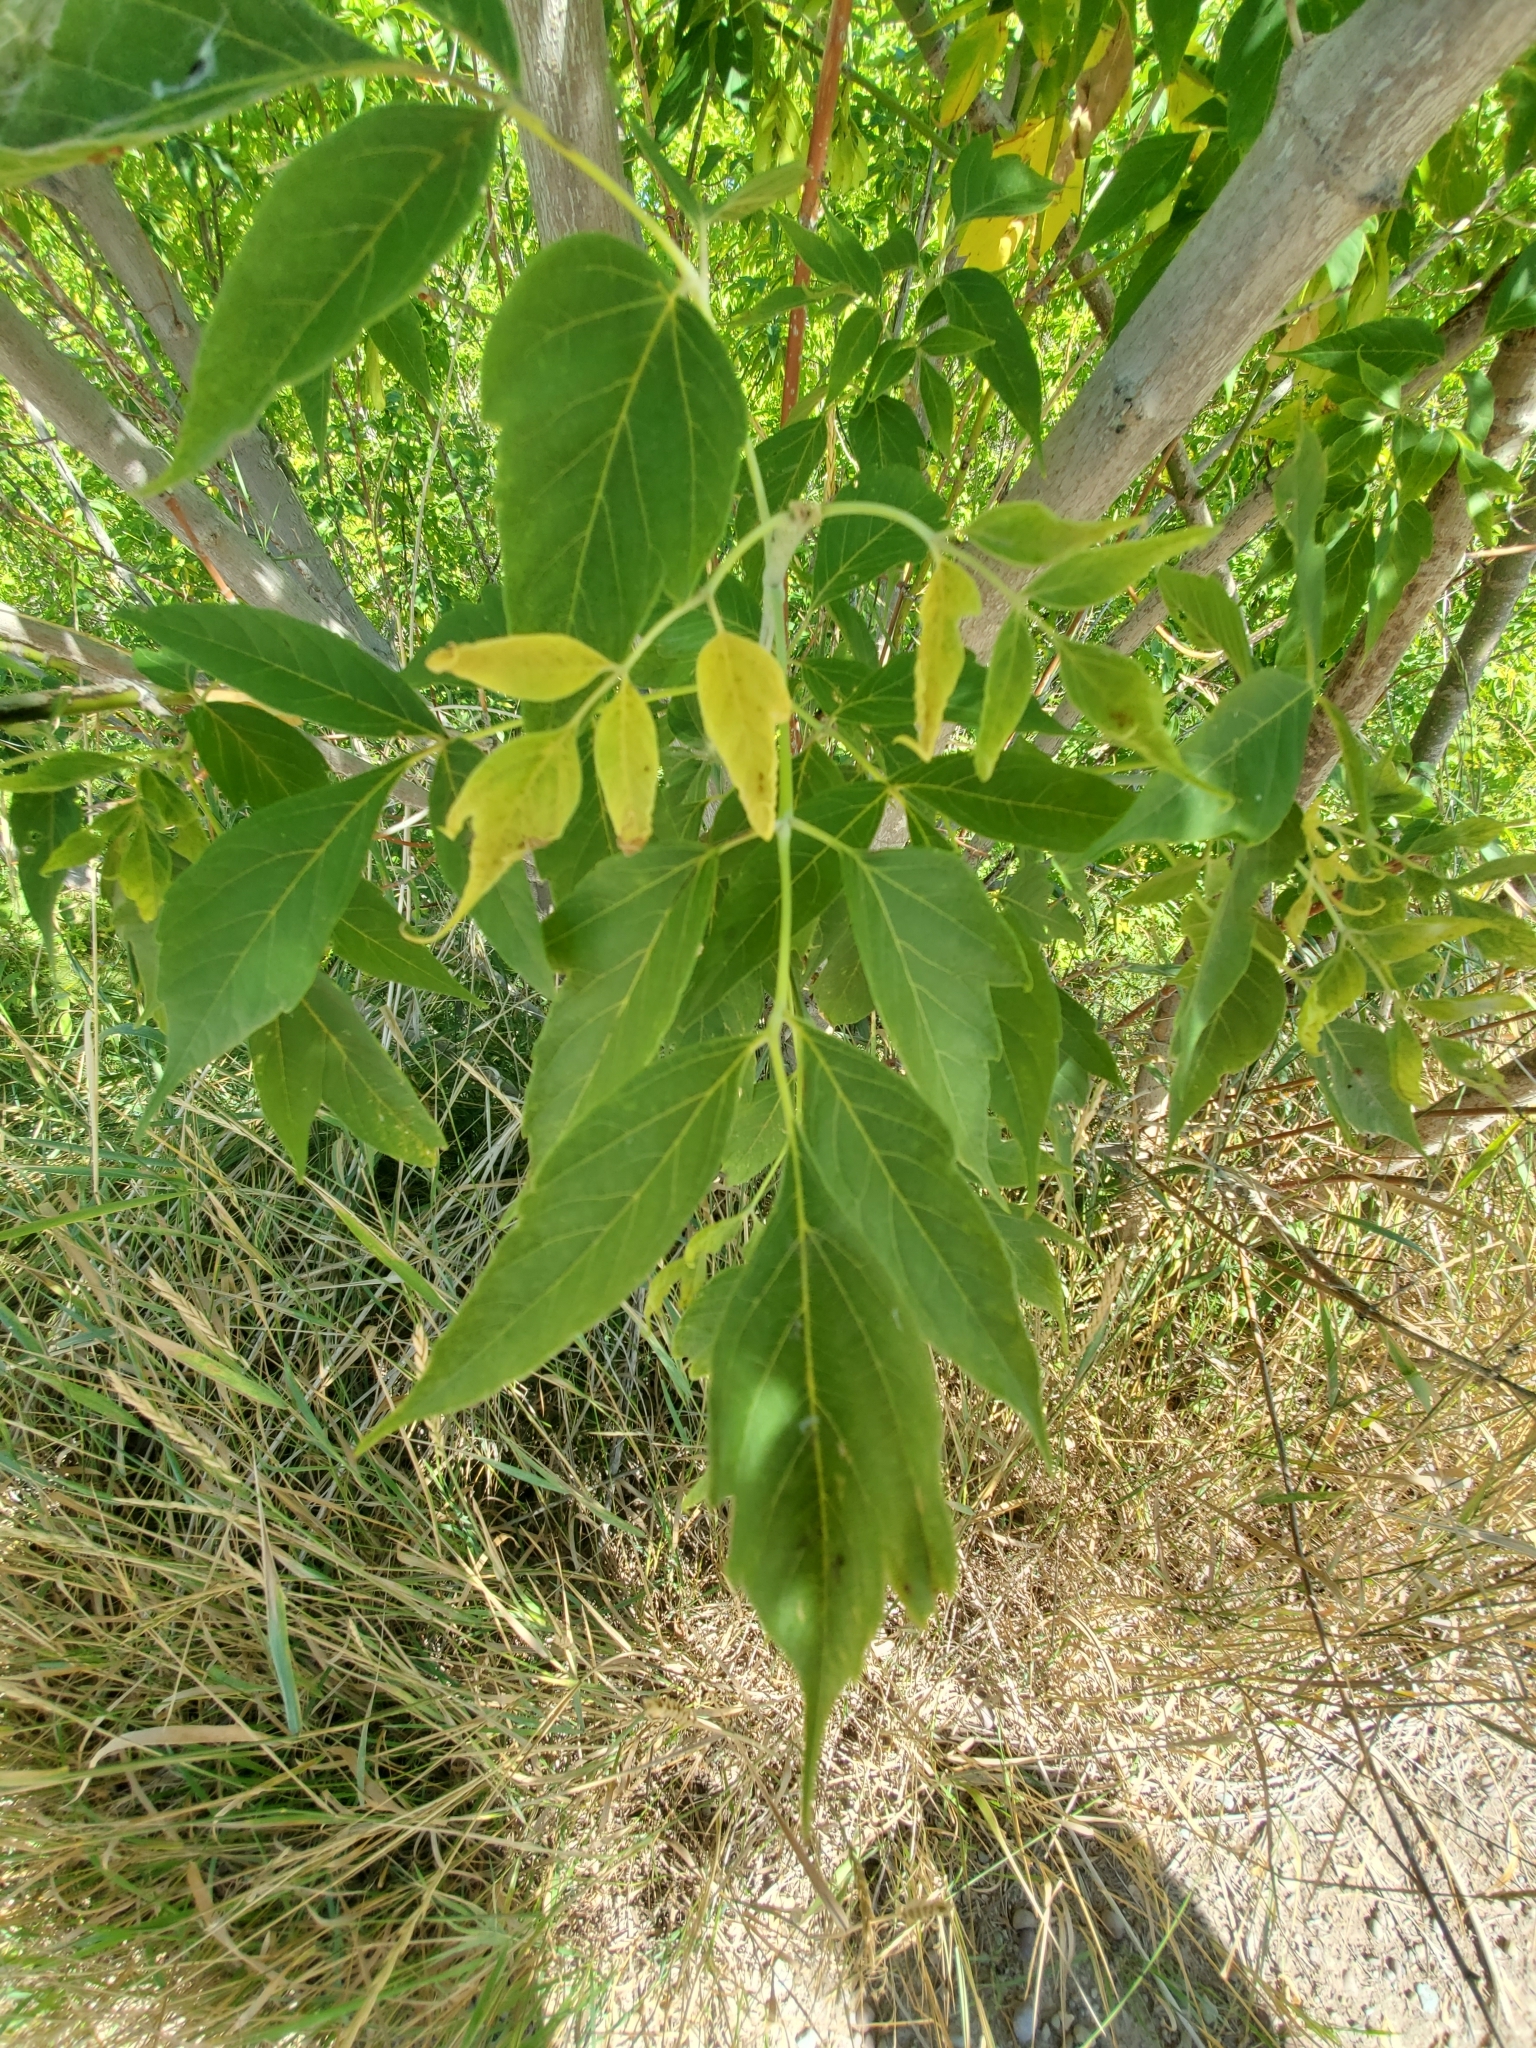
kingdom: Plantae
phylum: Tracheophyta
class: Magnoliopsida
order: Sapindales
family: Sapindaceae
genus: Acer
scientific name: Acer negundo
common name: Ashleaf maple
